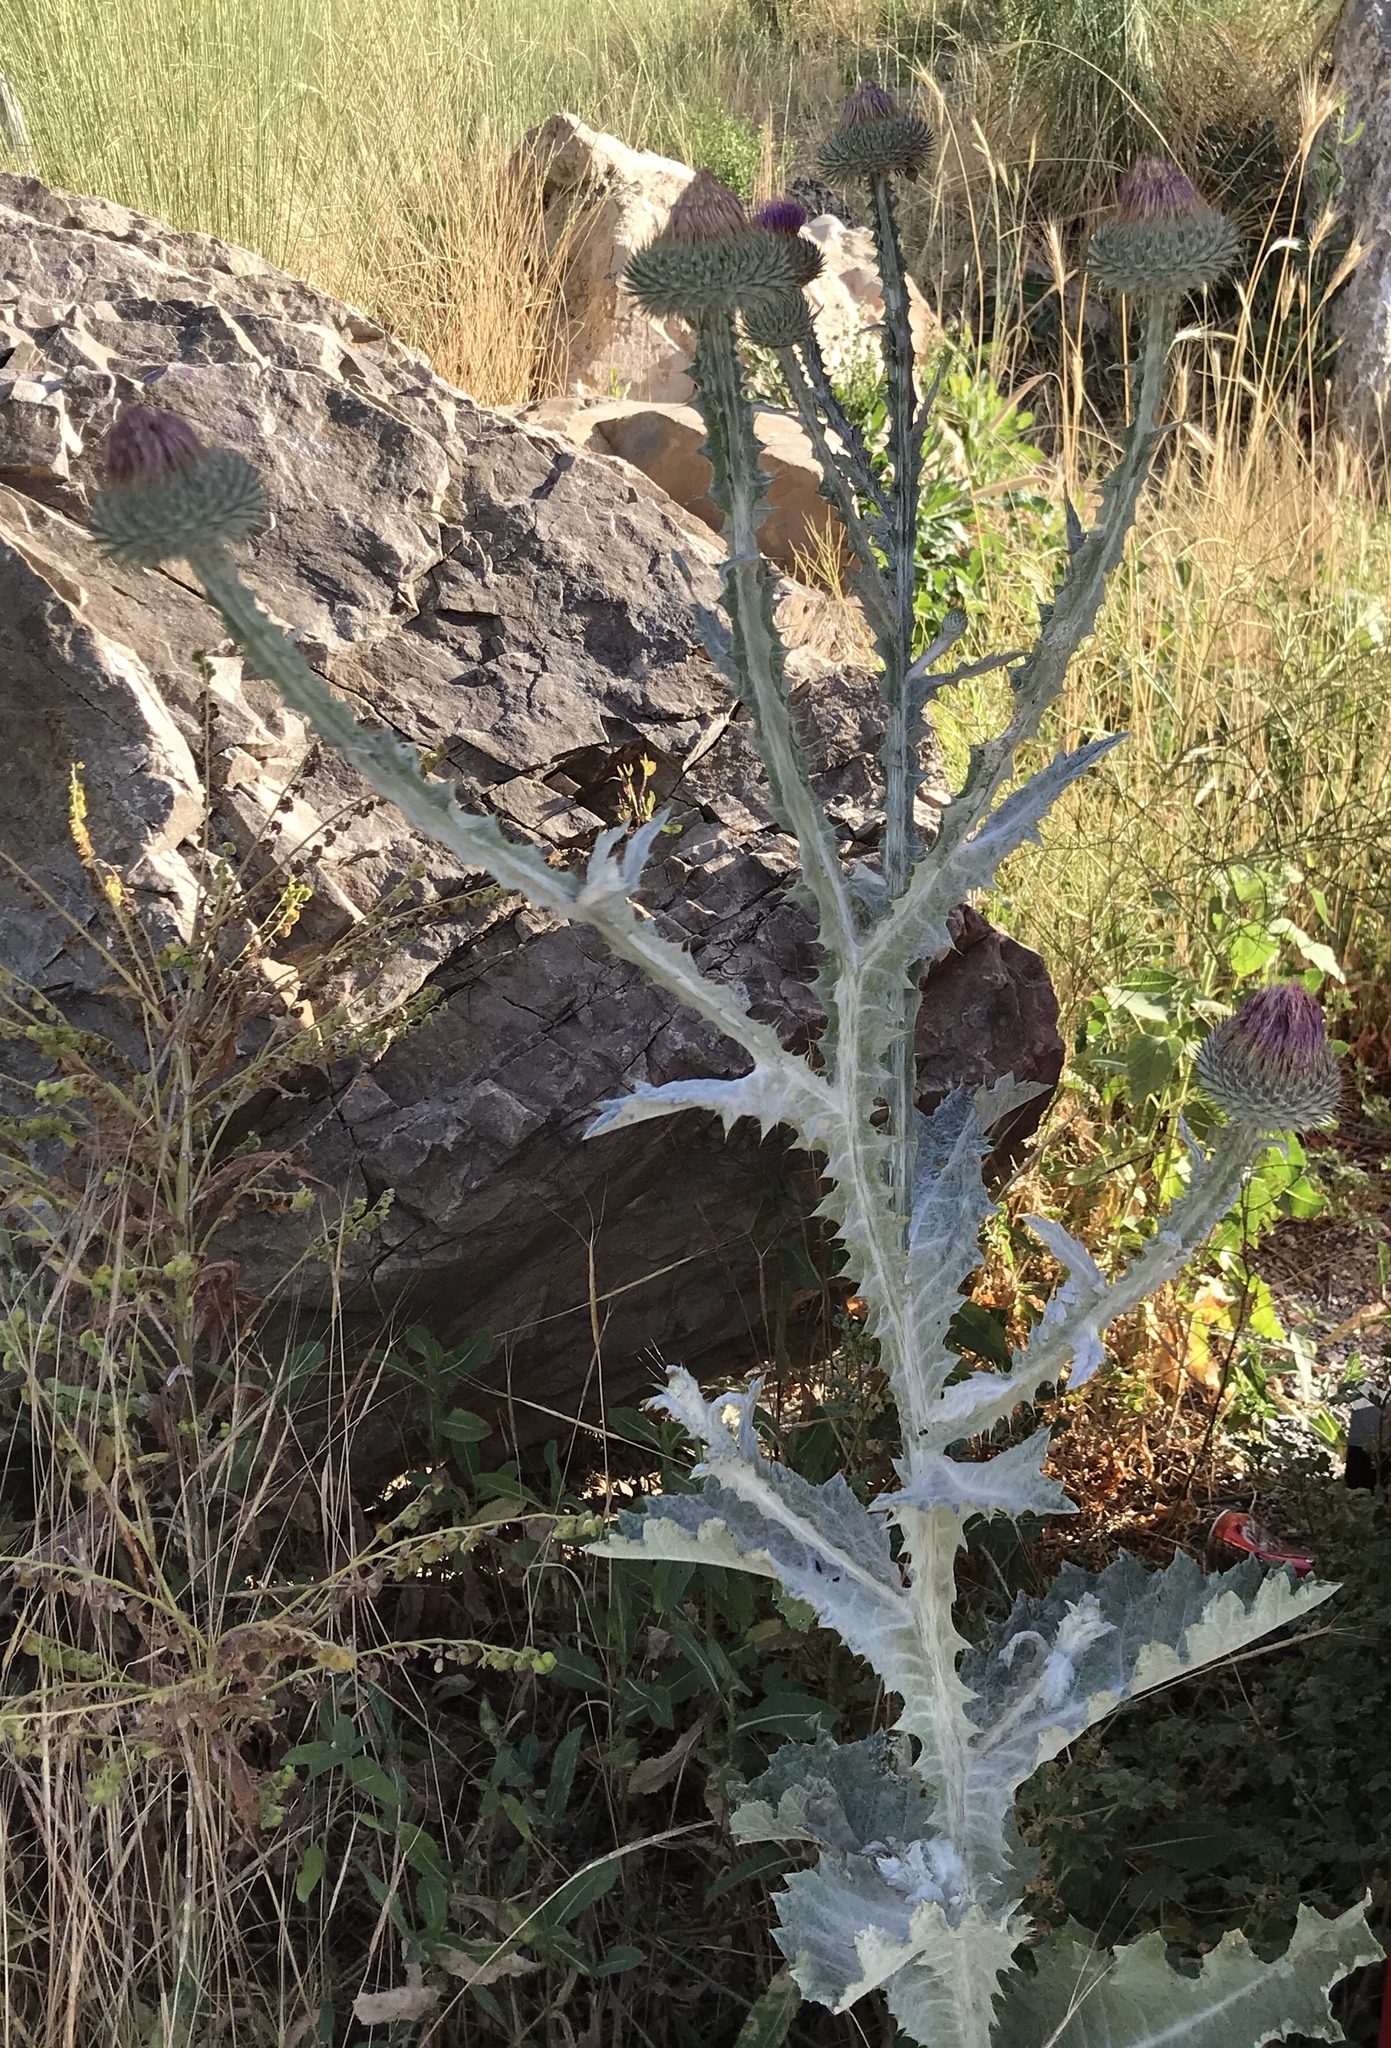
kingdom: Plantae
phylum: Tracheophyta
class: Magnoliopsida
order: Asterales
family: Asteraceae
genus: Onopordum
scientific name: Onopordum acanthium
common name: Scotch thistle
